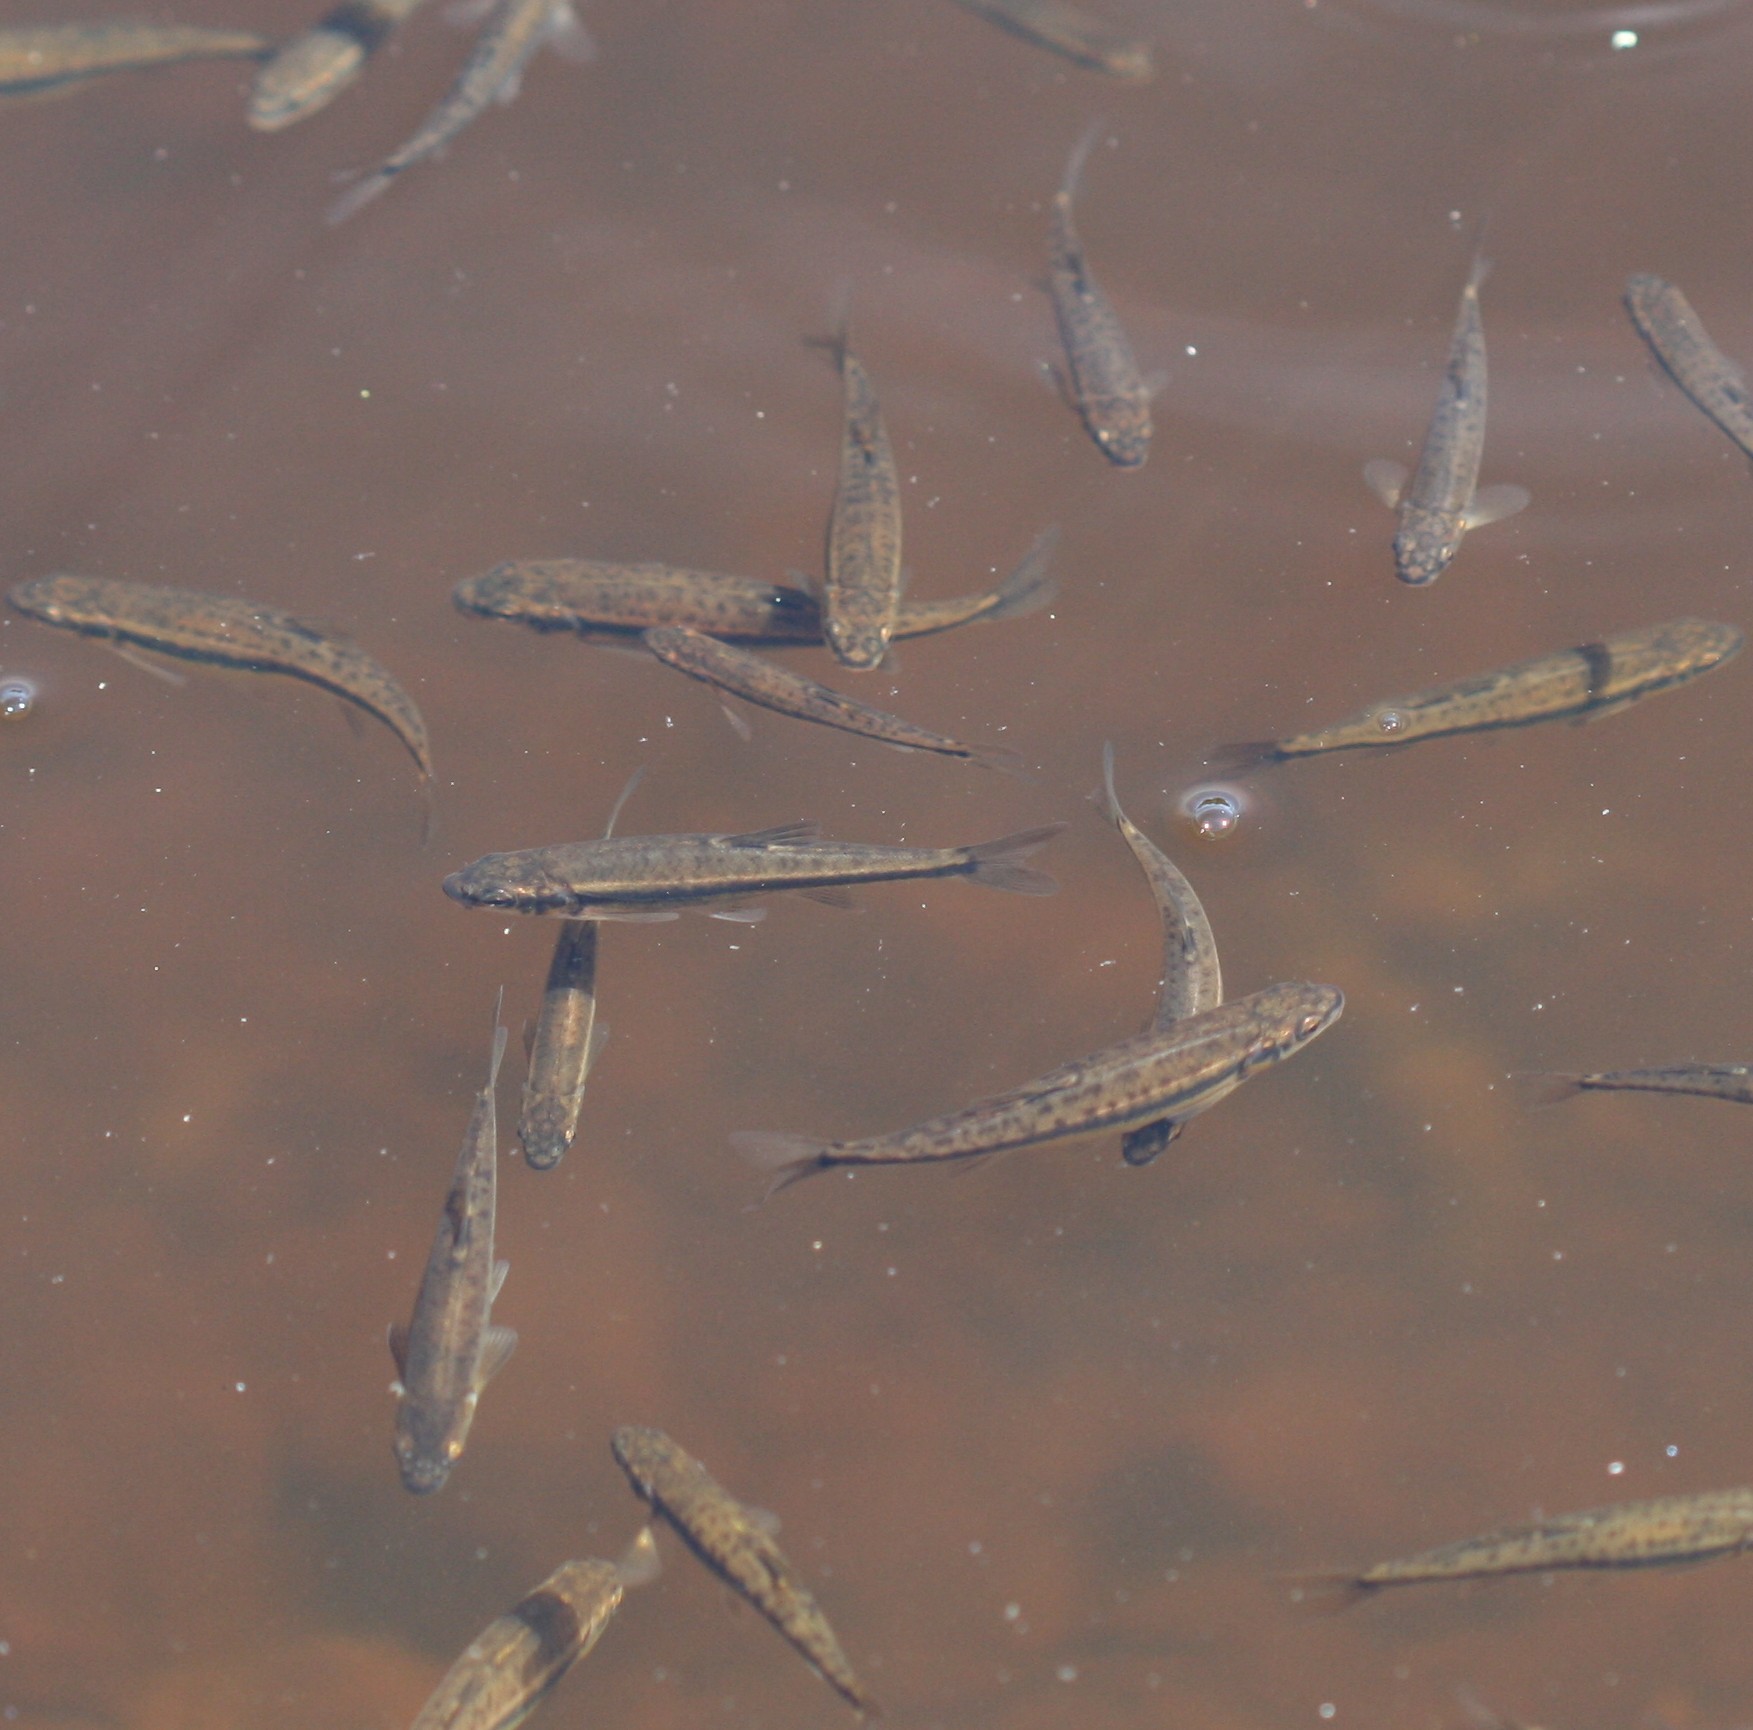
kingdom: Animalia
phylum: Chordata
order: Cypriniformes
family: Cyprinidae
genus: Phoxinus
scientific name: Phoxinus phoxinus
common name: Minnow
